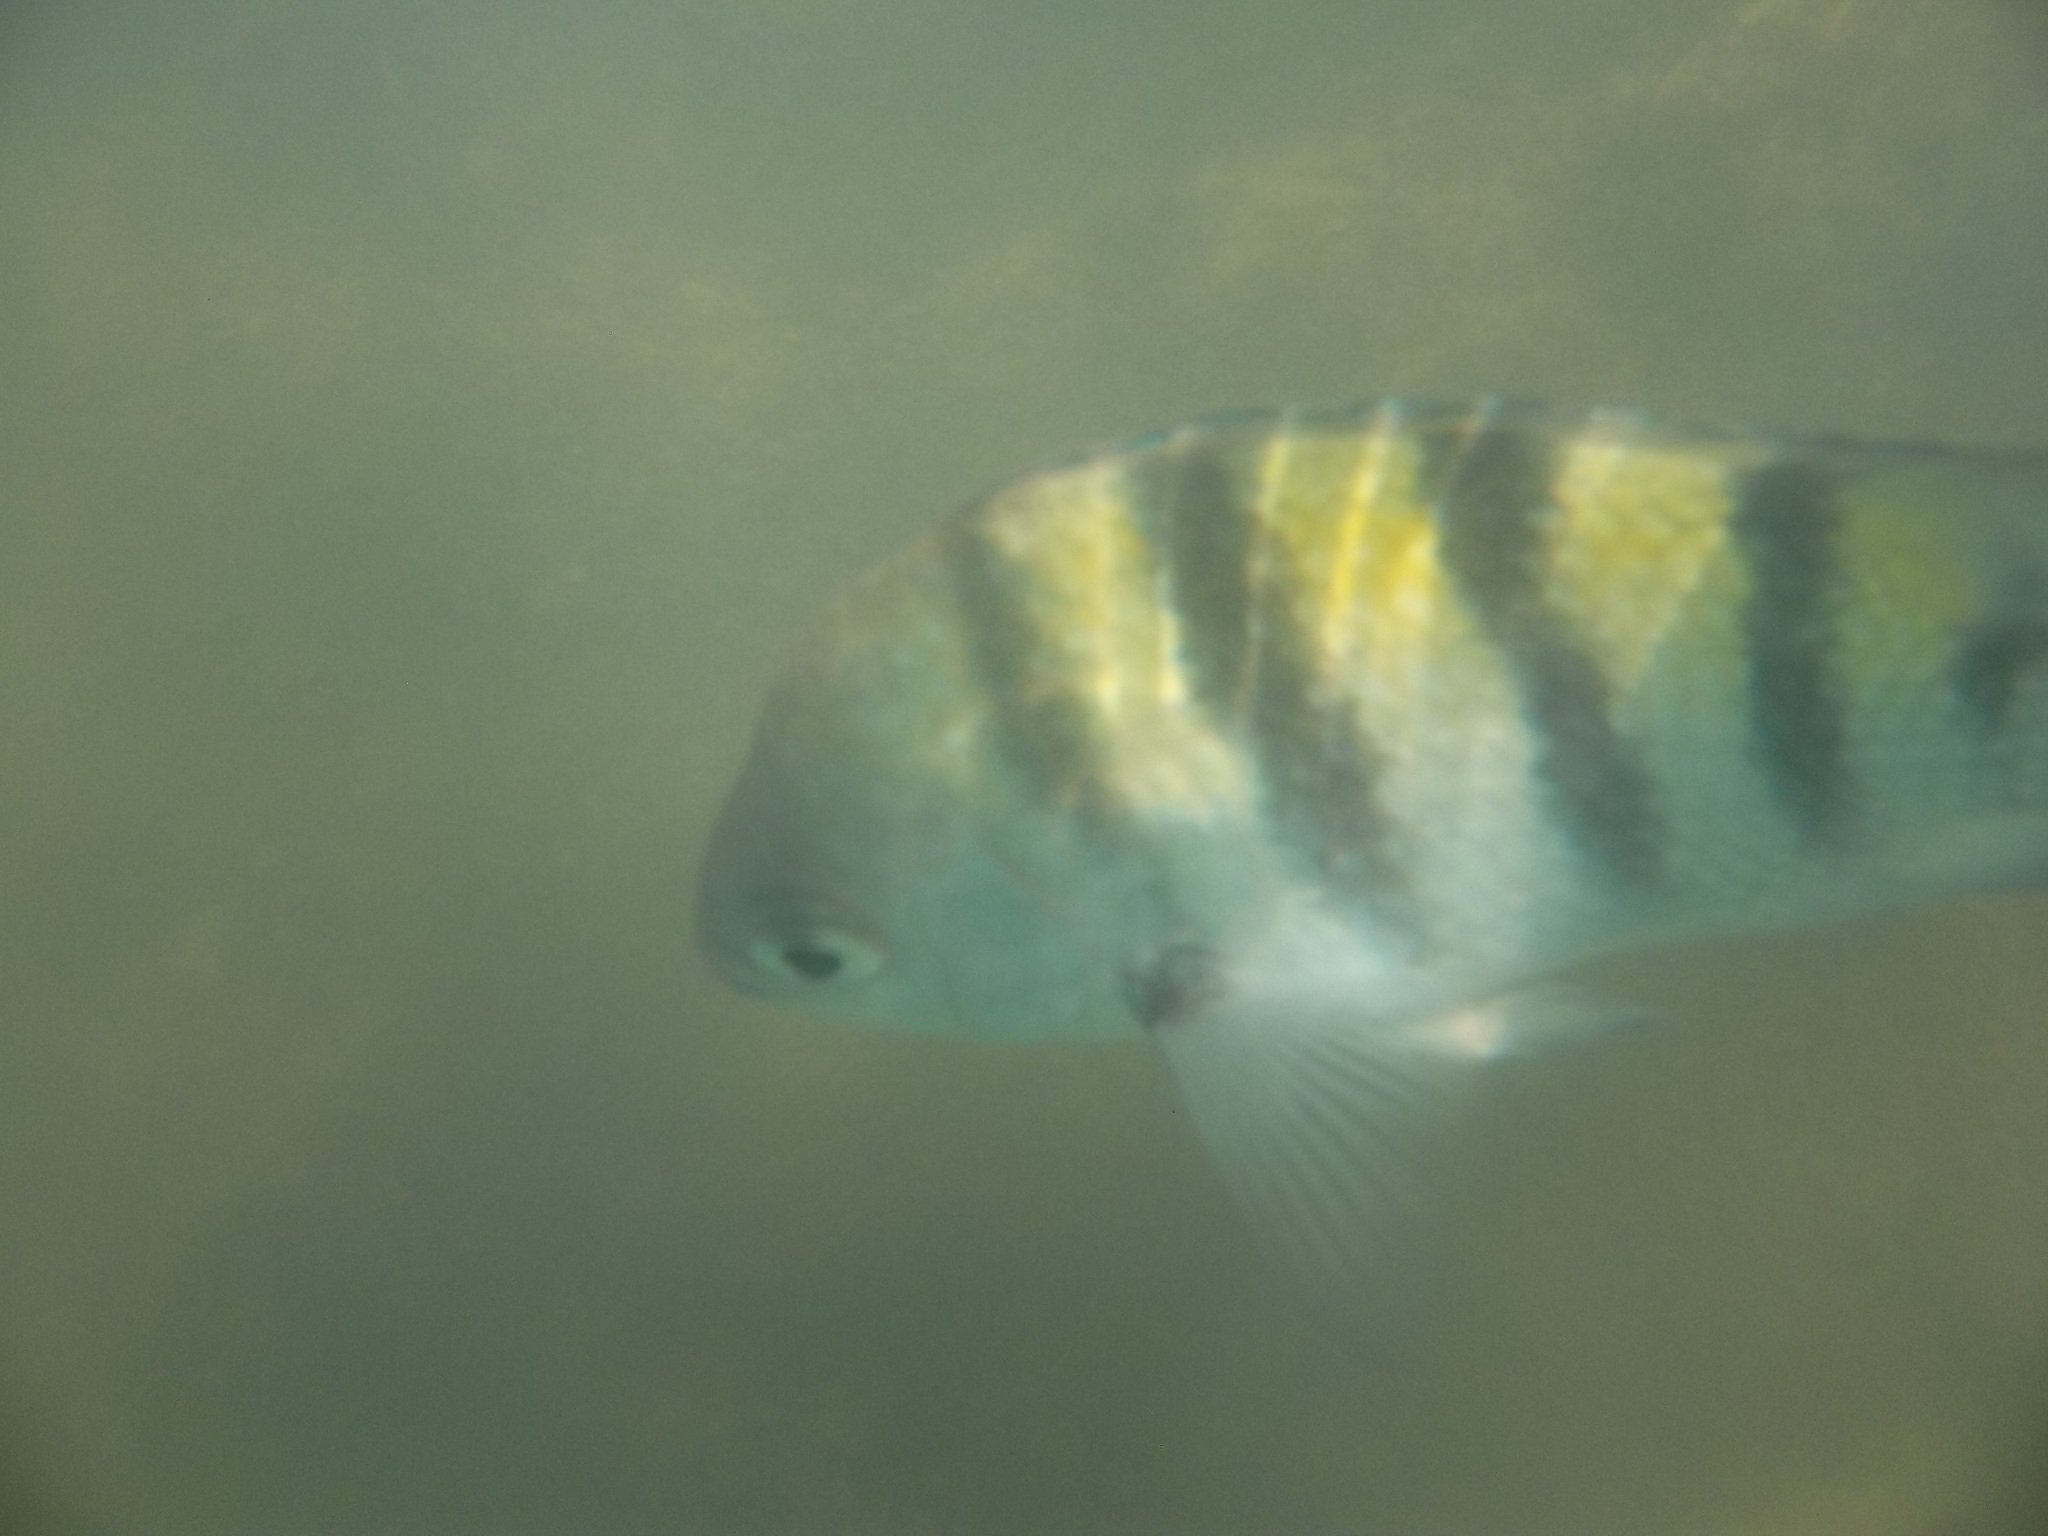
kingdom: Animalia
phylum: Chordata
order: Perciformes
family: Pomacentridae
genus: Abudefduf
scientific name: Abudefduf saxatilis
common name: Sergeant major
